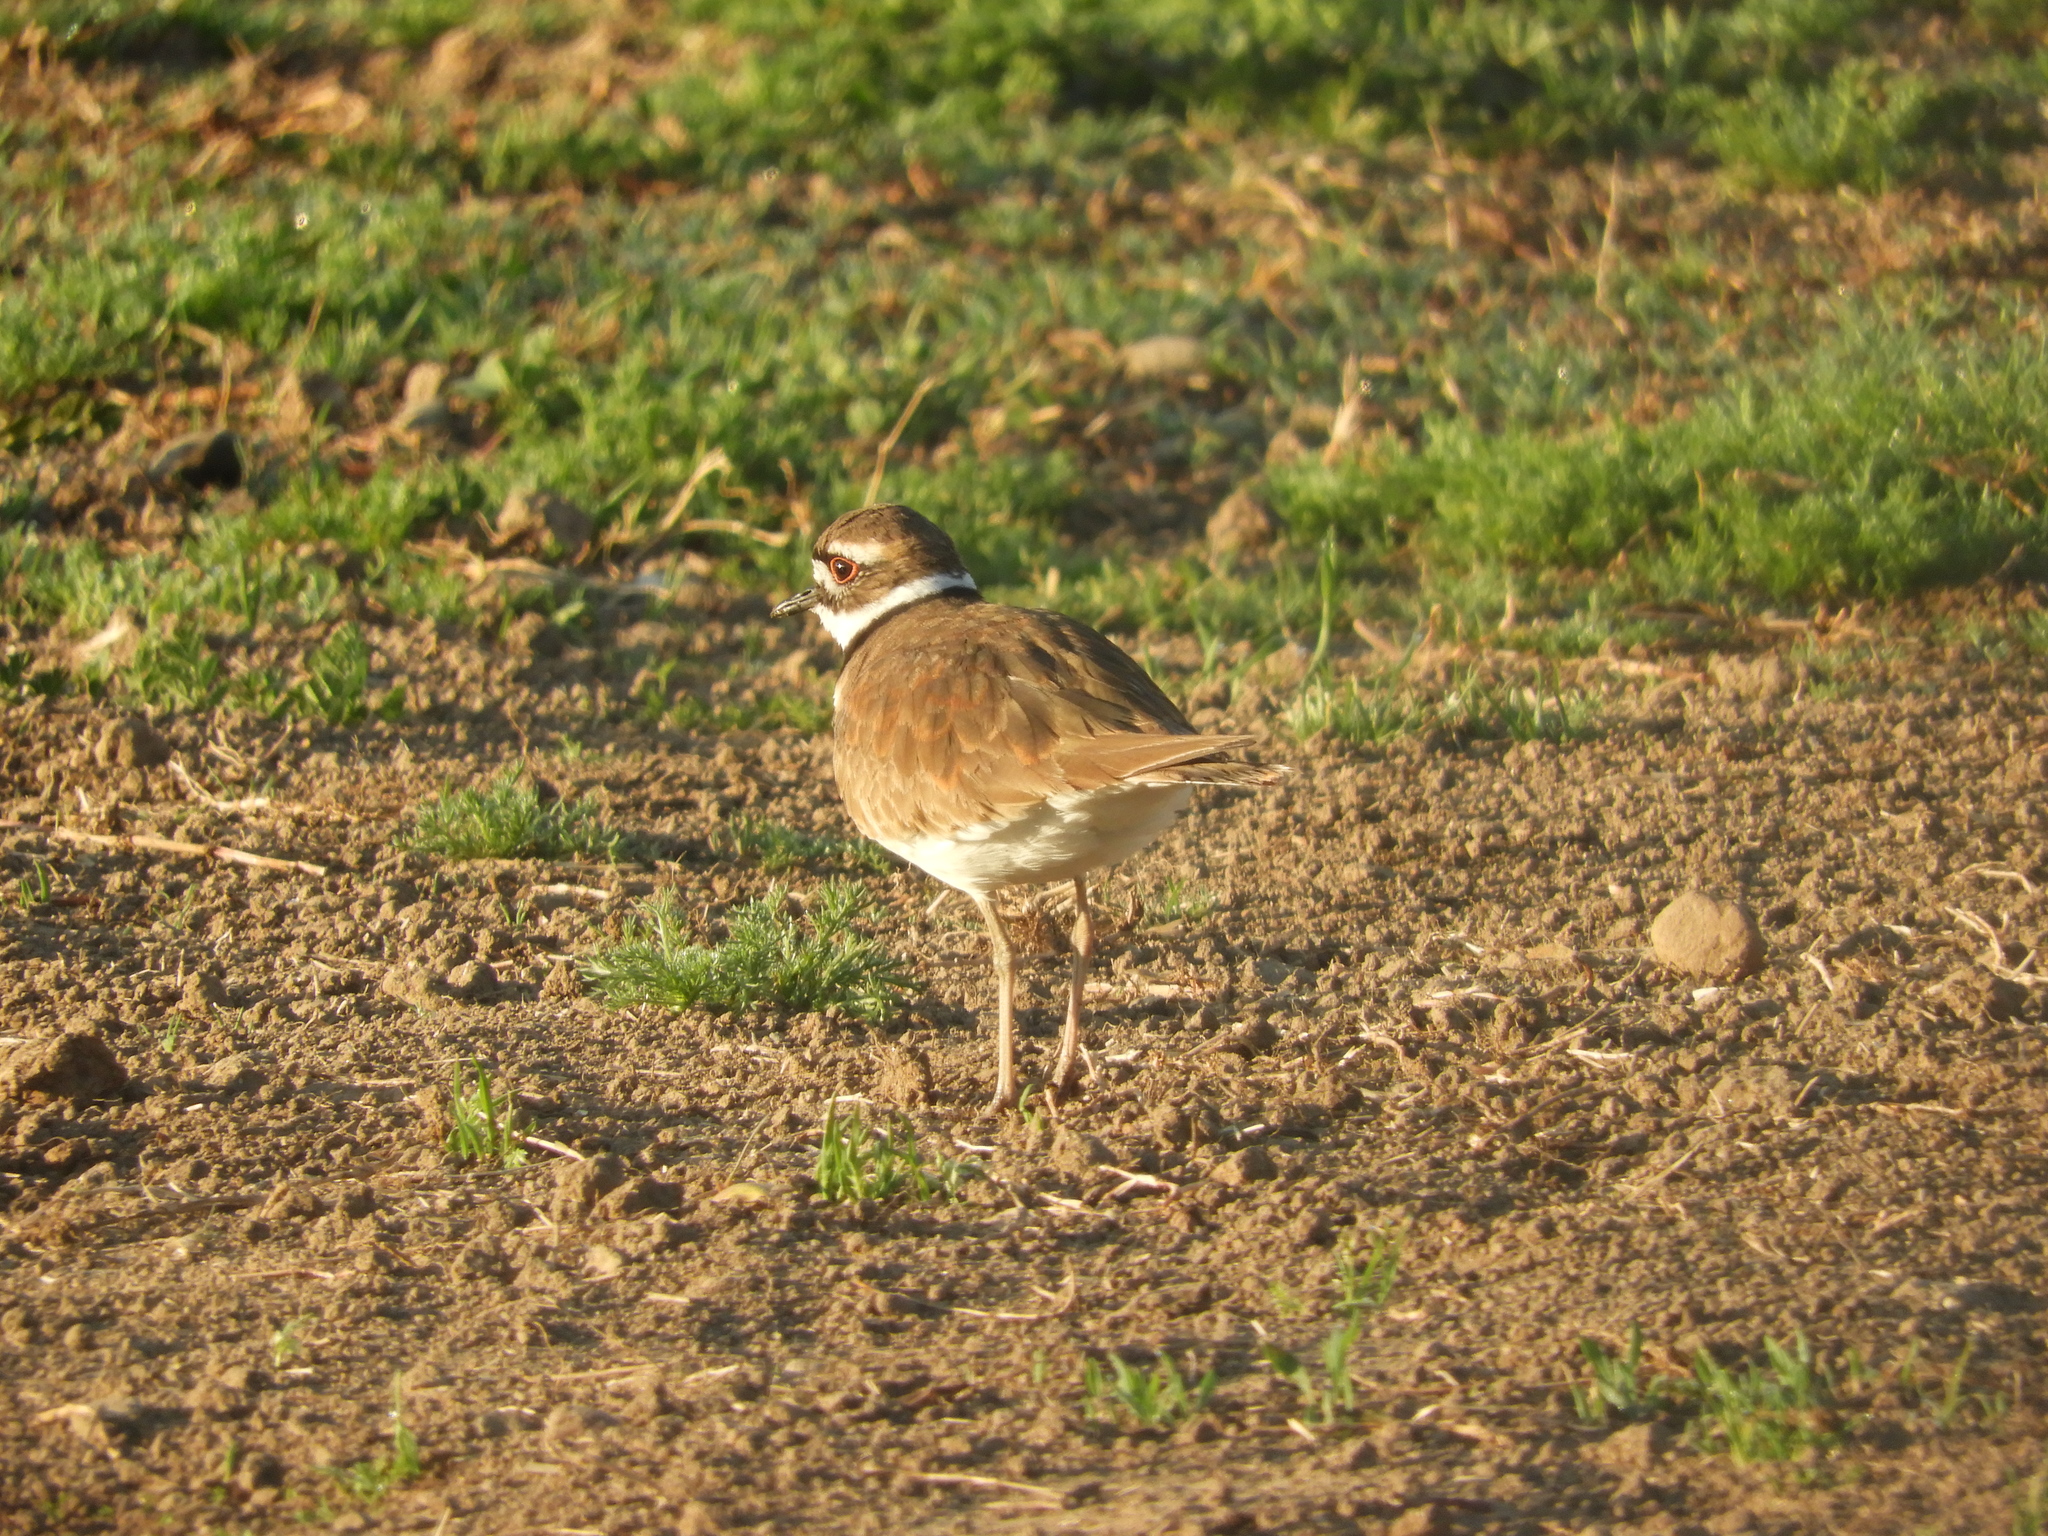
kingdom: Animalia
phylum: Chordata
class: Aves
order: Charadriiformes
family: Charadriidae
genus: Charadrius
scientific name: Charadrius vociferus
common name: Killdeer
